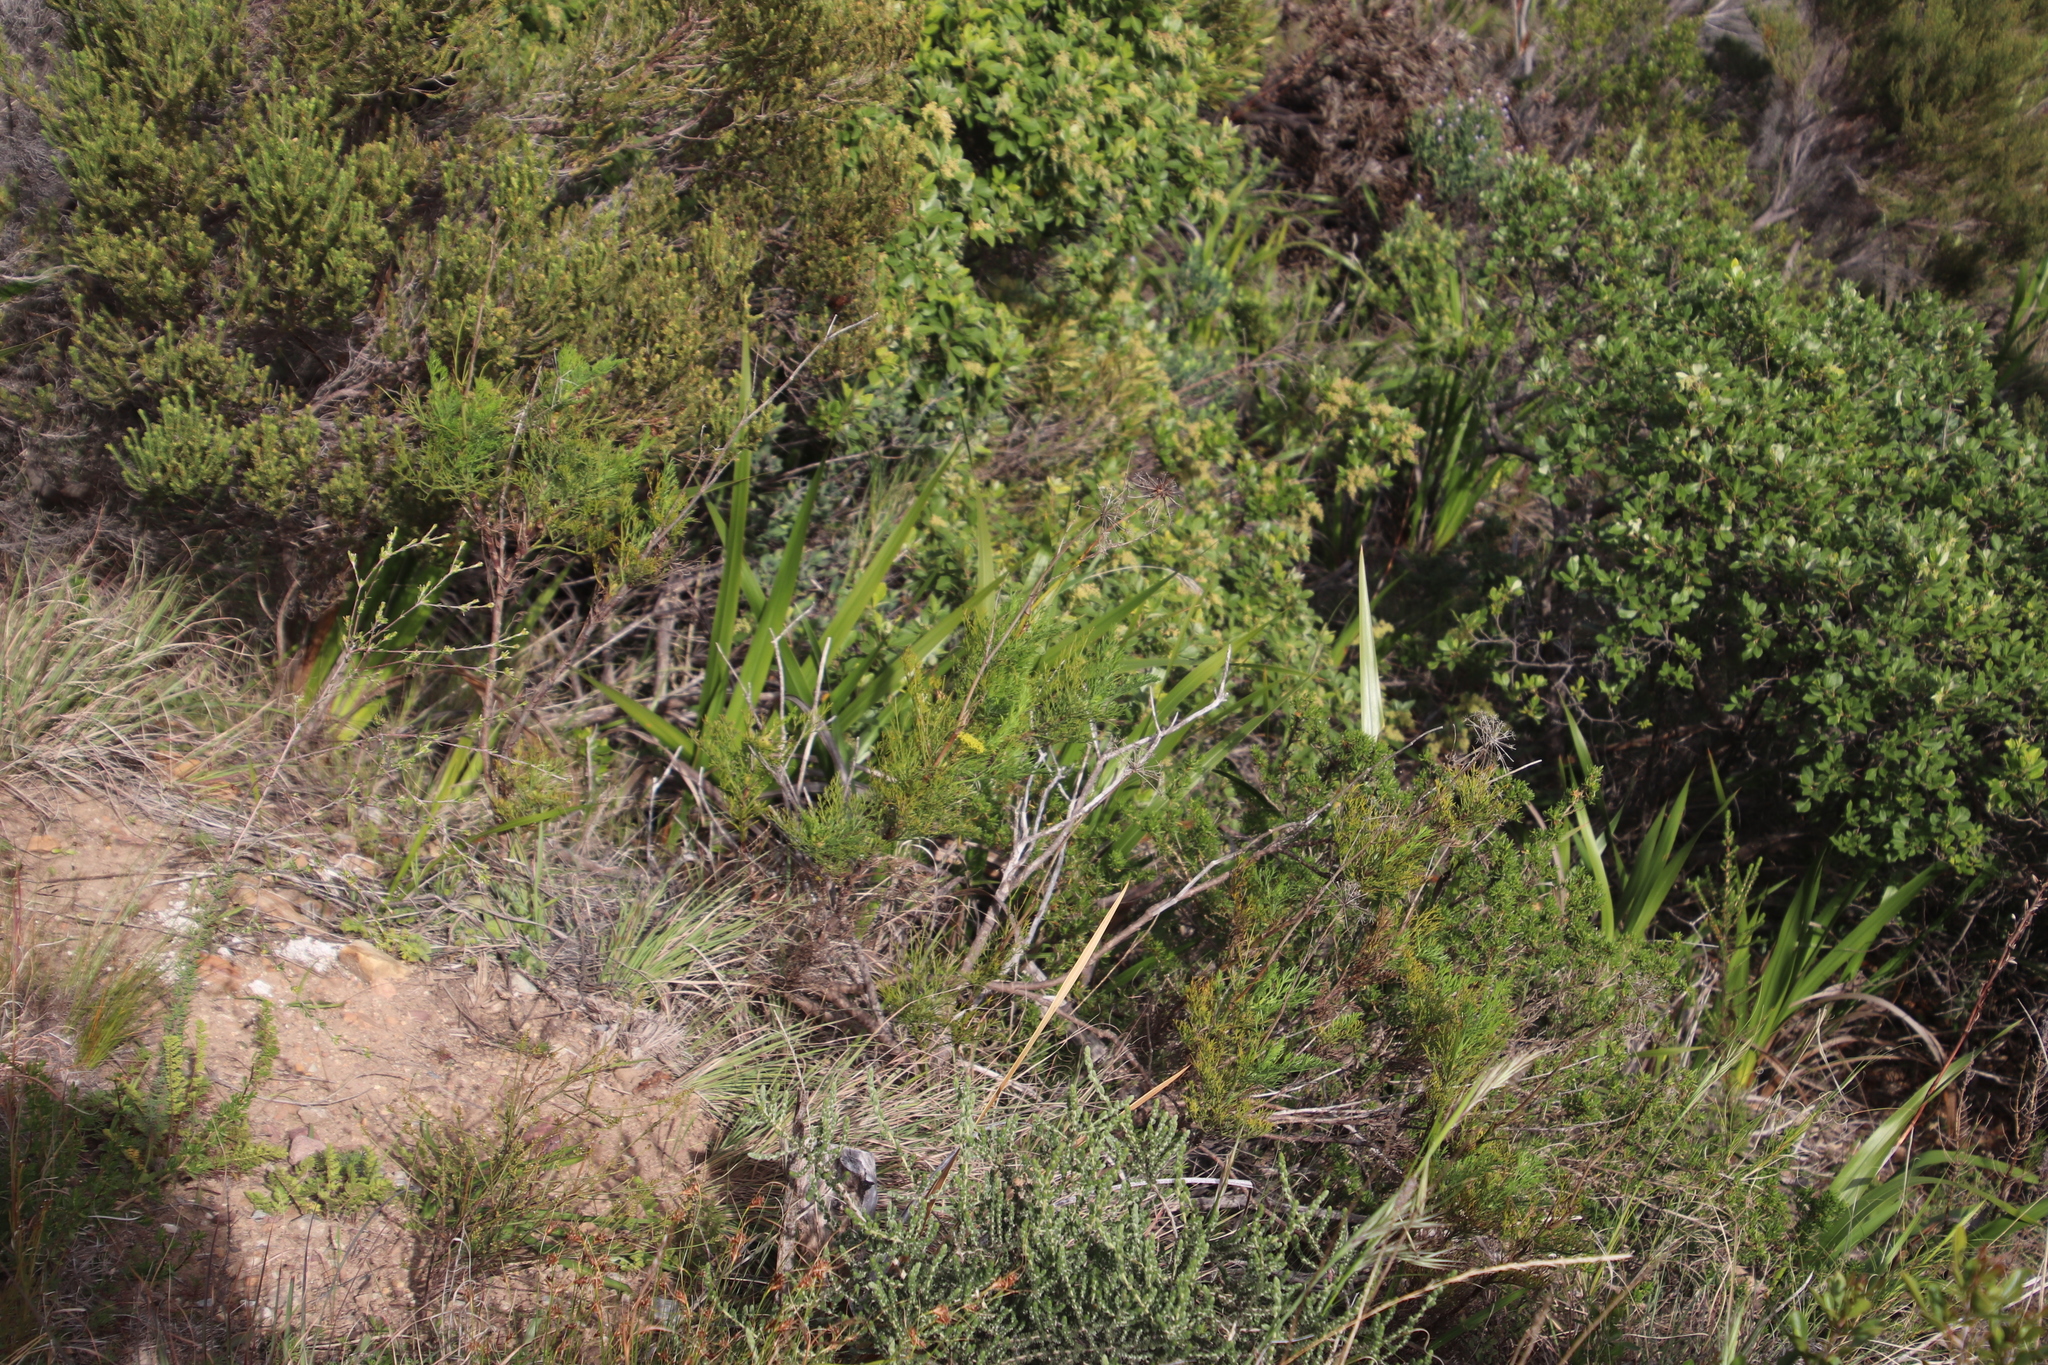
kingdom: Plantae
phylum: Tracheophyta
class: Magnoliopsida
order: Apiales
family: Apiaceae
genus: Notobubon
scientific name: Notobubon ferulaceum
